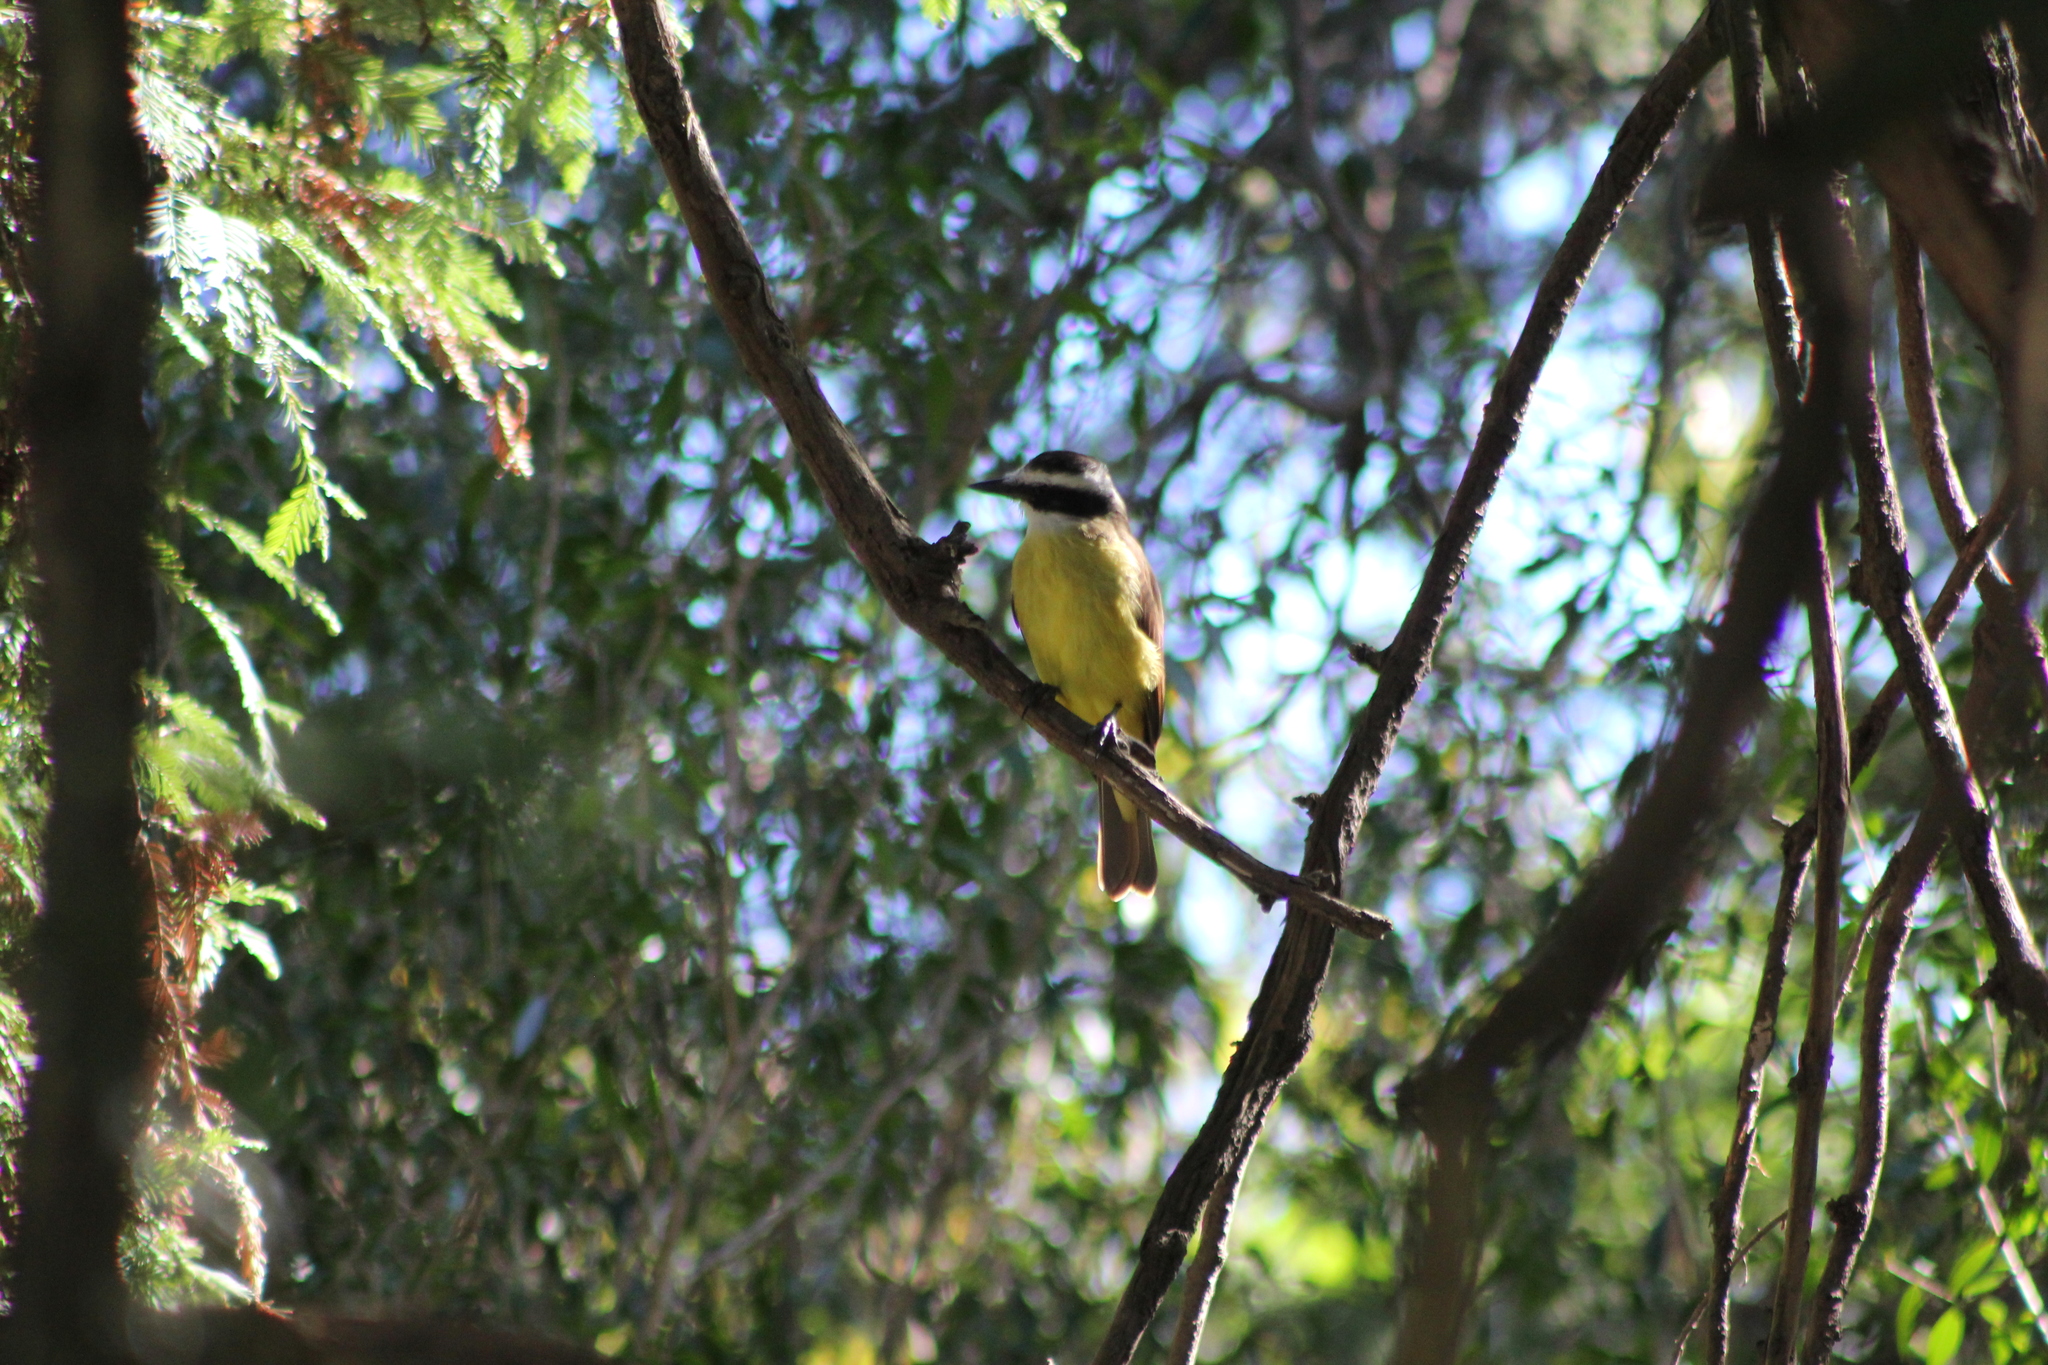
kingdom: Animalia
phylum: Chordata
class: Aves
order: Passeriformes
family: Tyrannidae
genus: Pitangus
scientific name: Pitangus sulphuratus
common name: Great kiskadee
